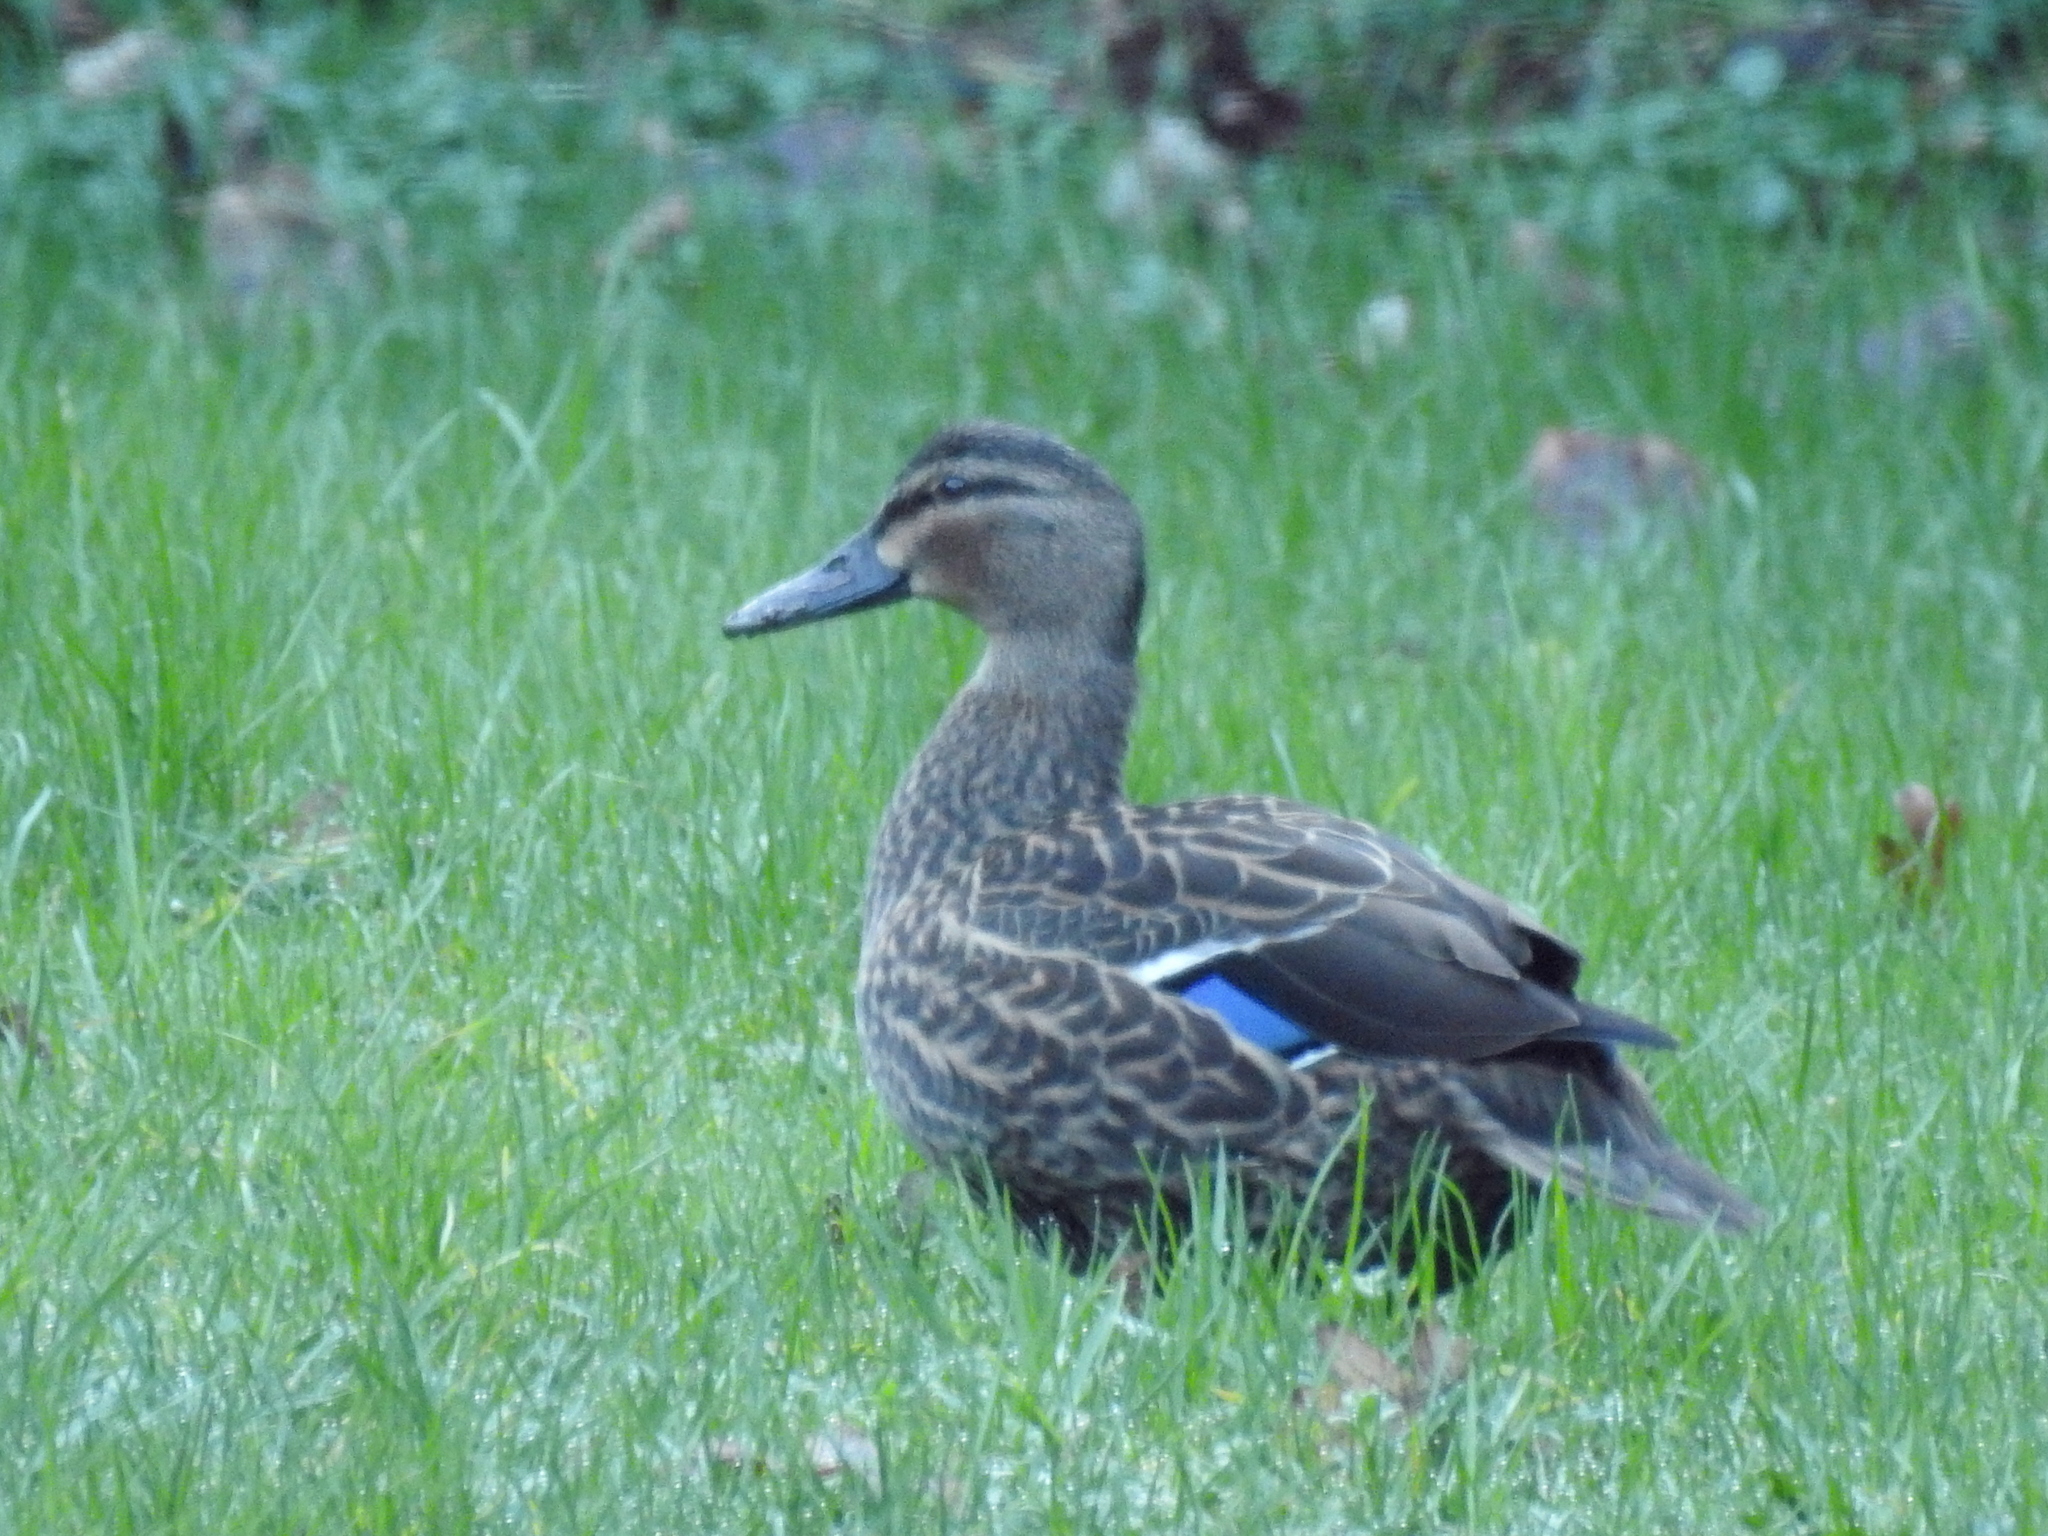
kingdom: Animalia
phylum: Chordata
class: Aves
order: Anseriformes
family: Anatidae
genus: Anas
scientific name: Anas
